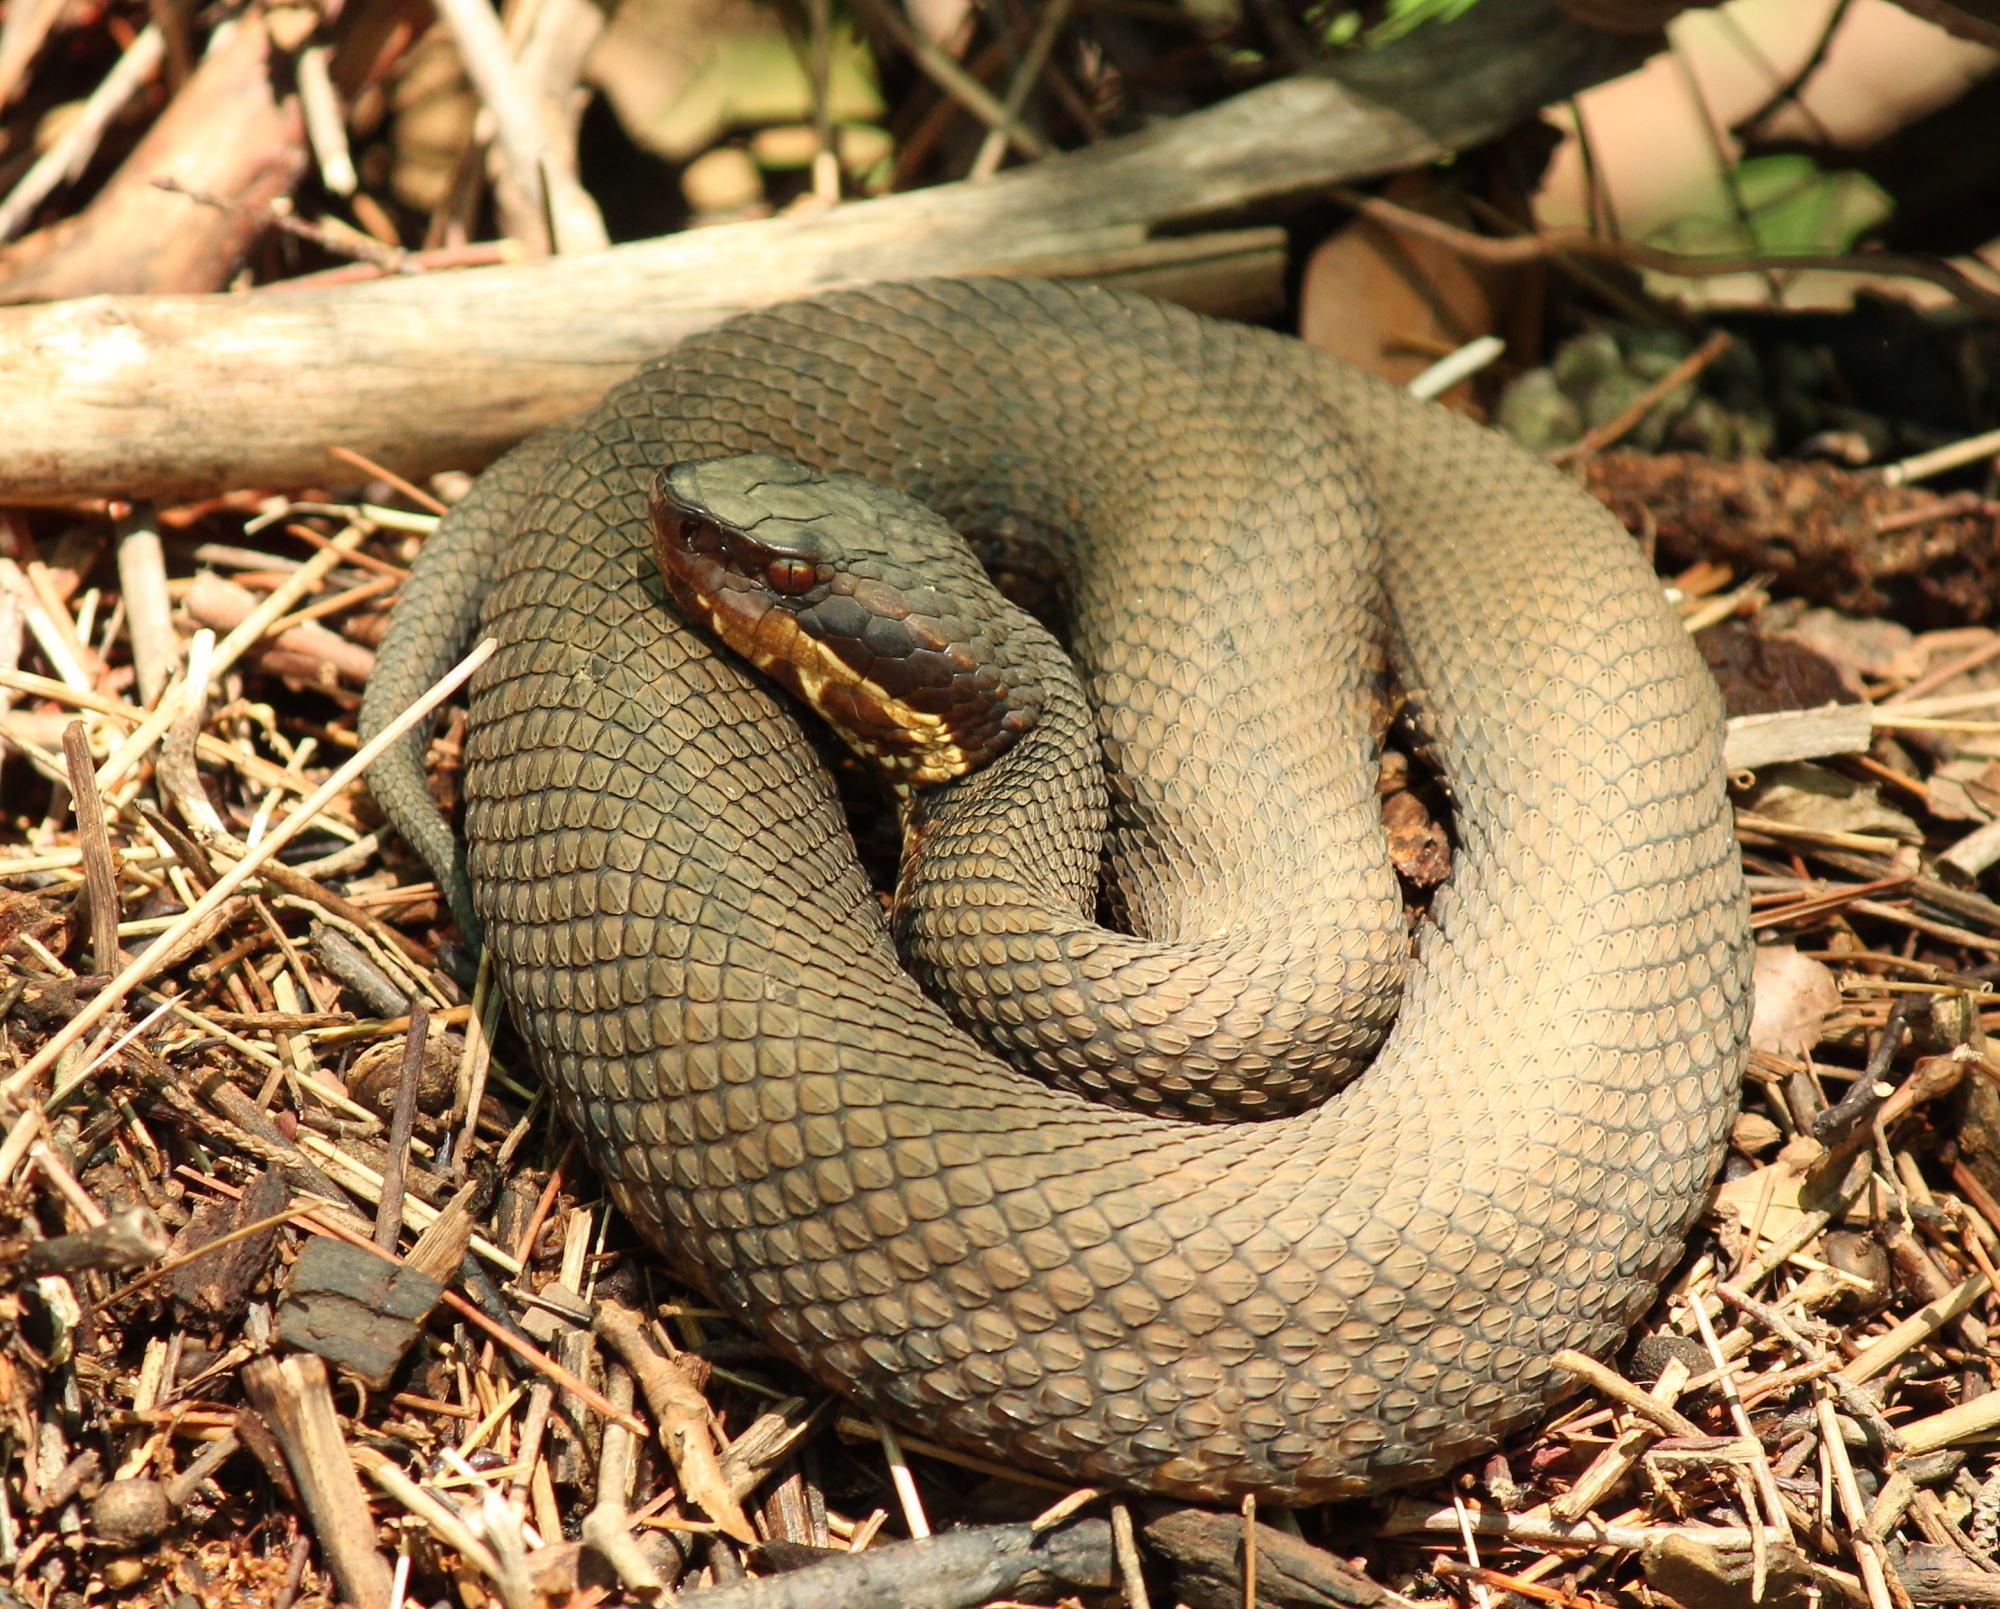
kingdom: Animalia
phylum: Chordata
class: Squamata
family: Viperidae
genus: Agkistrodon
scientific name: Agkistrodon piscivorus
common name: Cottonmouth
